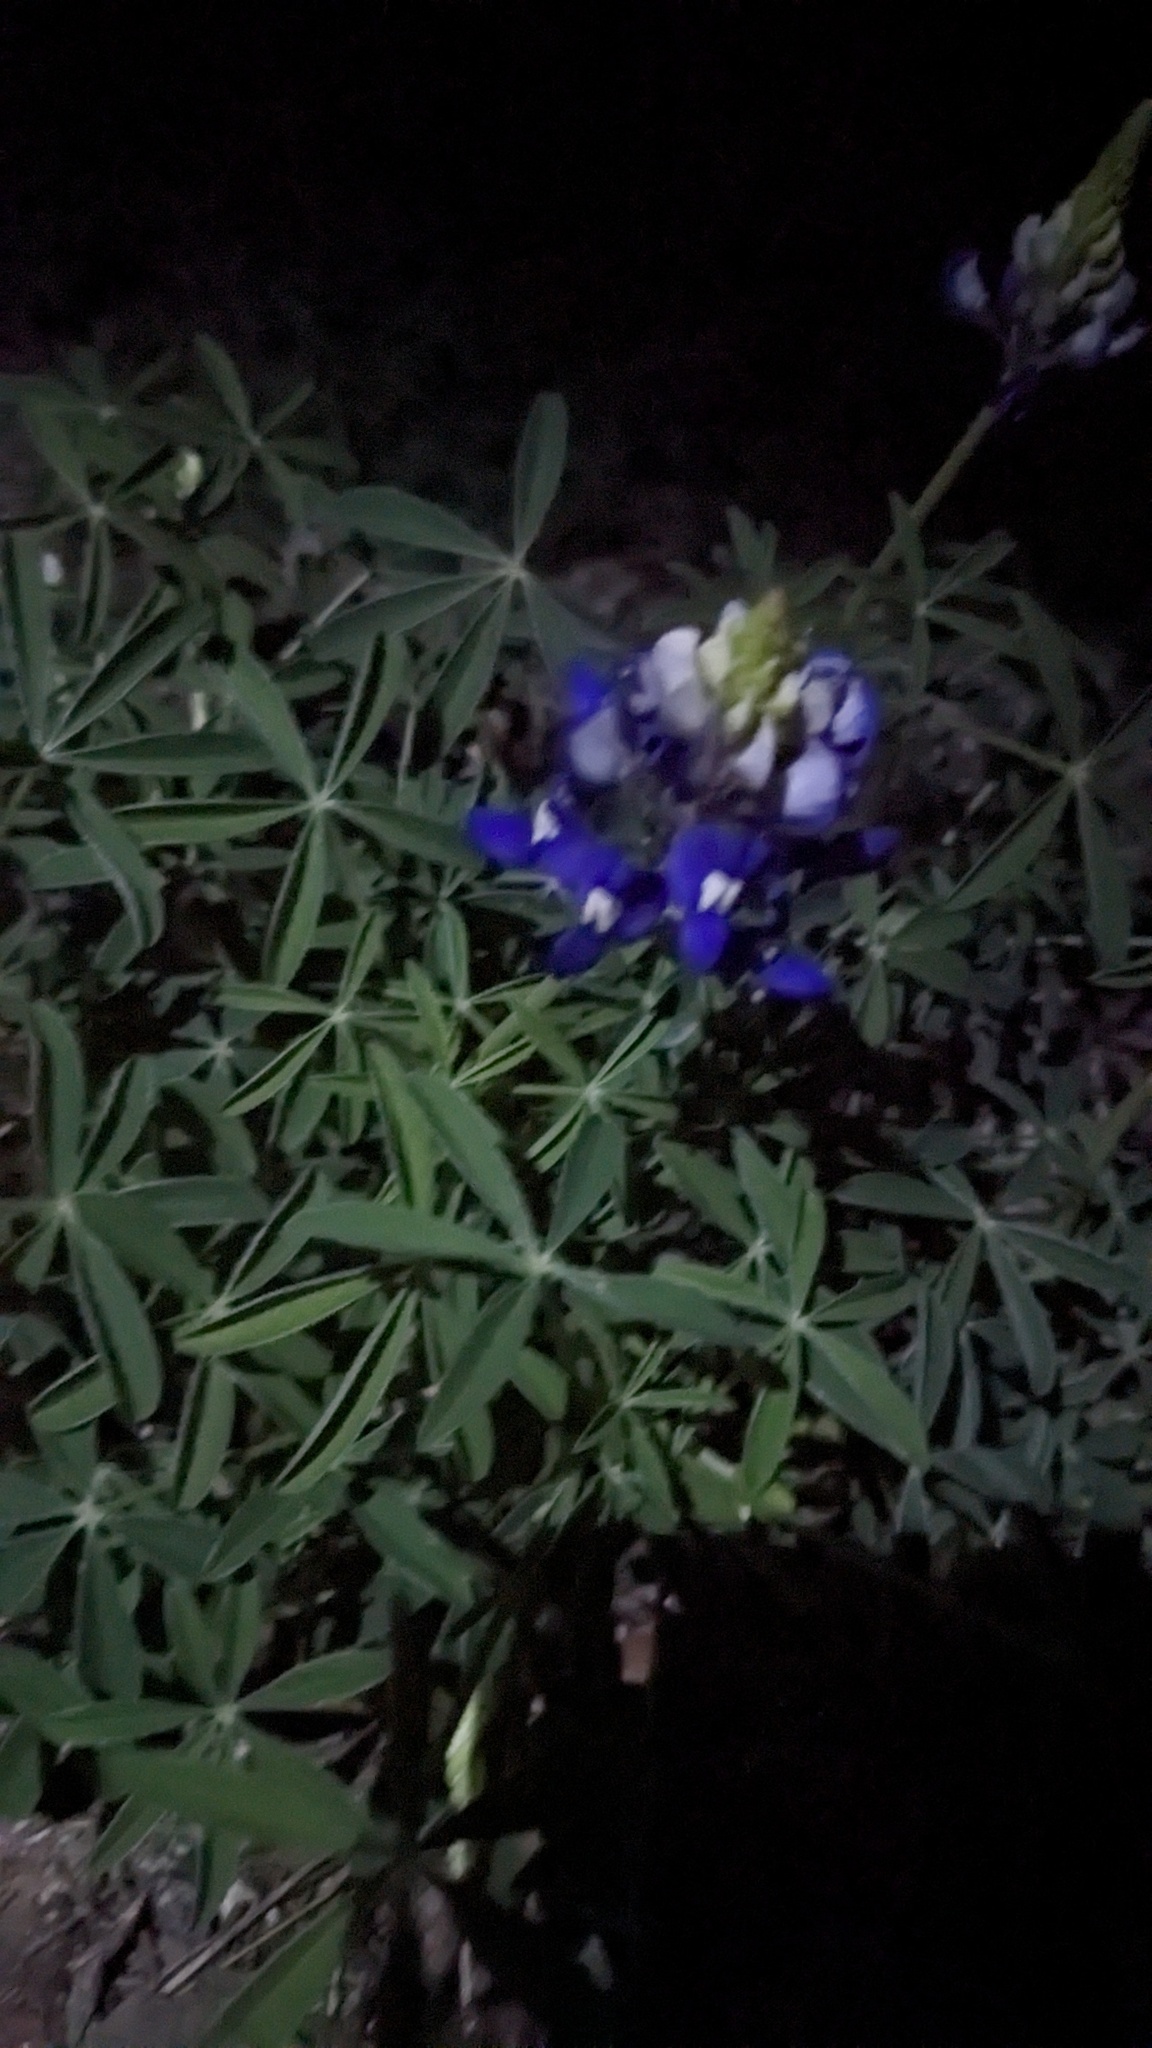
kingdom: Plantae
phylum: Tracheophyta
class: Magnoliopsida
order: Fabales
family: Fabaceae
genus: Lupinus
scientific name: Lupinus texensis
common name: Texas bluebonnet
